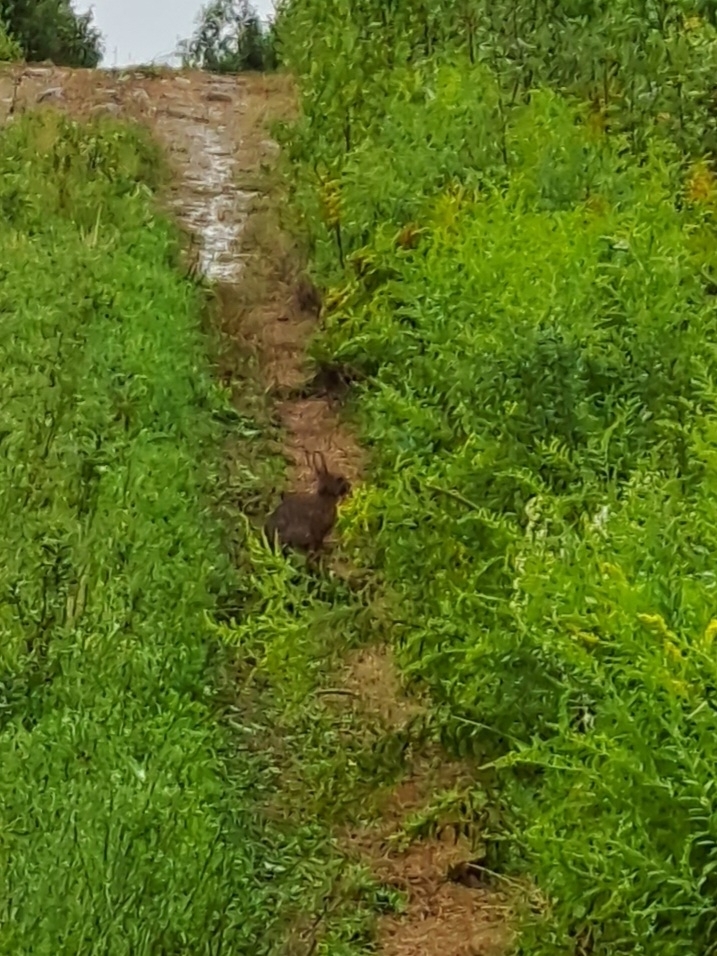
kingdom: Animalia
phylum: Chordata
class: Mammalia
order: Lagomorpha
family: Leporidae
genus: Lepus
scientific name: Lepus americanus
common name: Snowshoe hare
